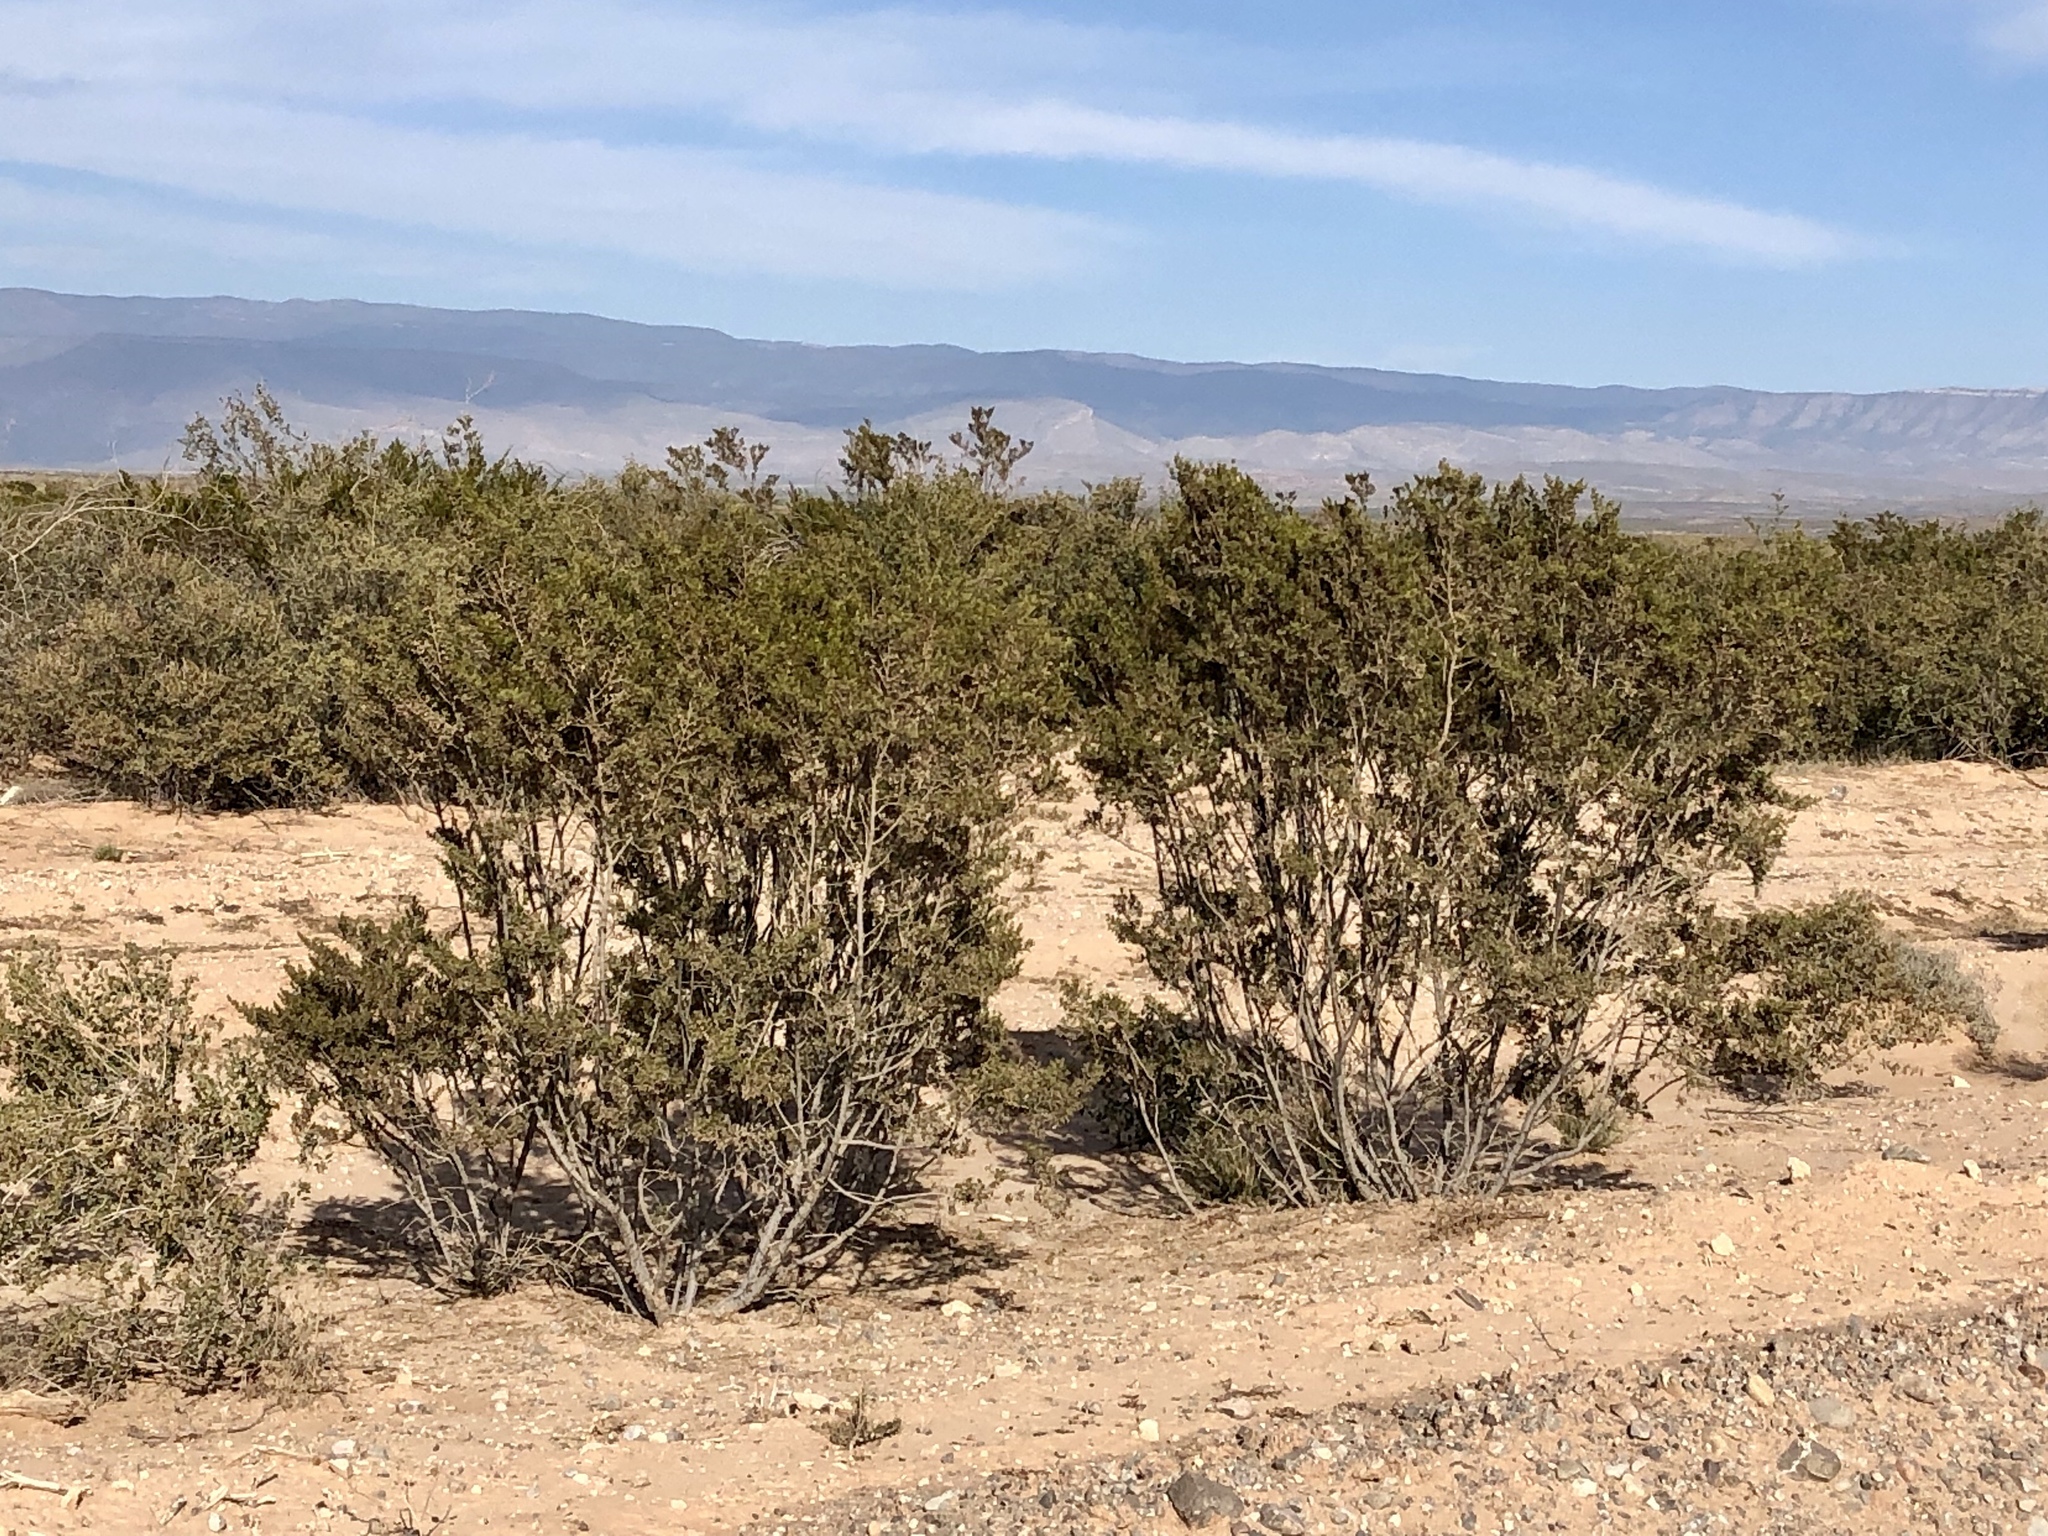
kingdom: Plantae
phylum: Tracheophyta
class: Magnoliopsida
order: Zygophyllales
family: Zygophyllaceae
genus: Larrea
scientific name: Larrea tridentata
